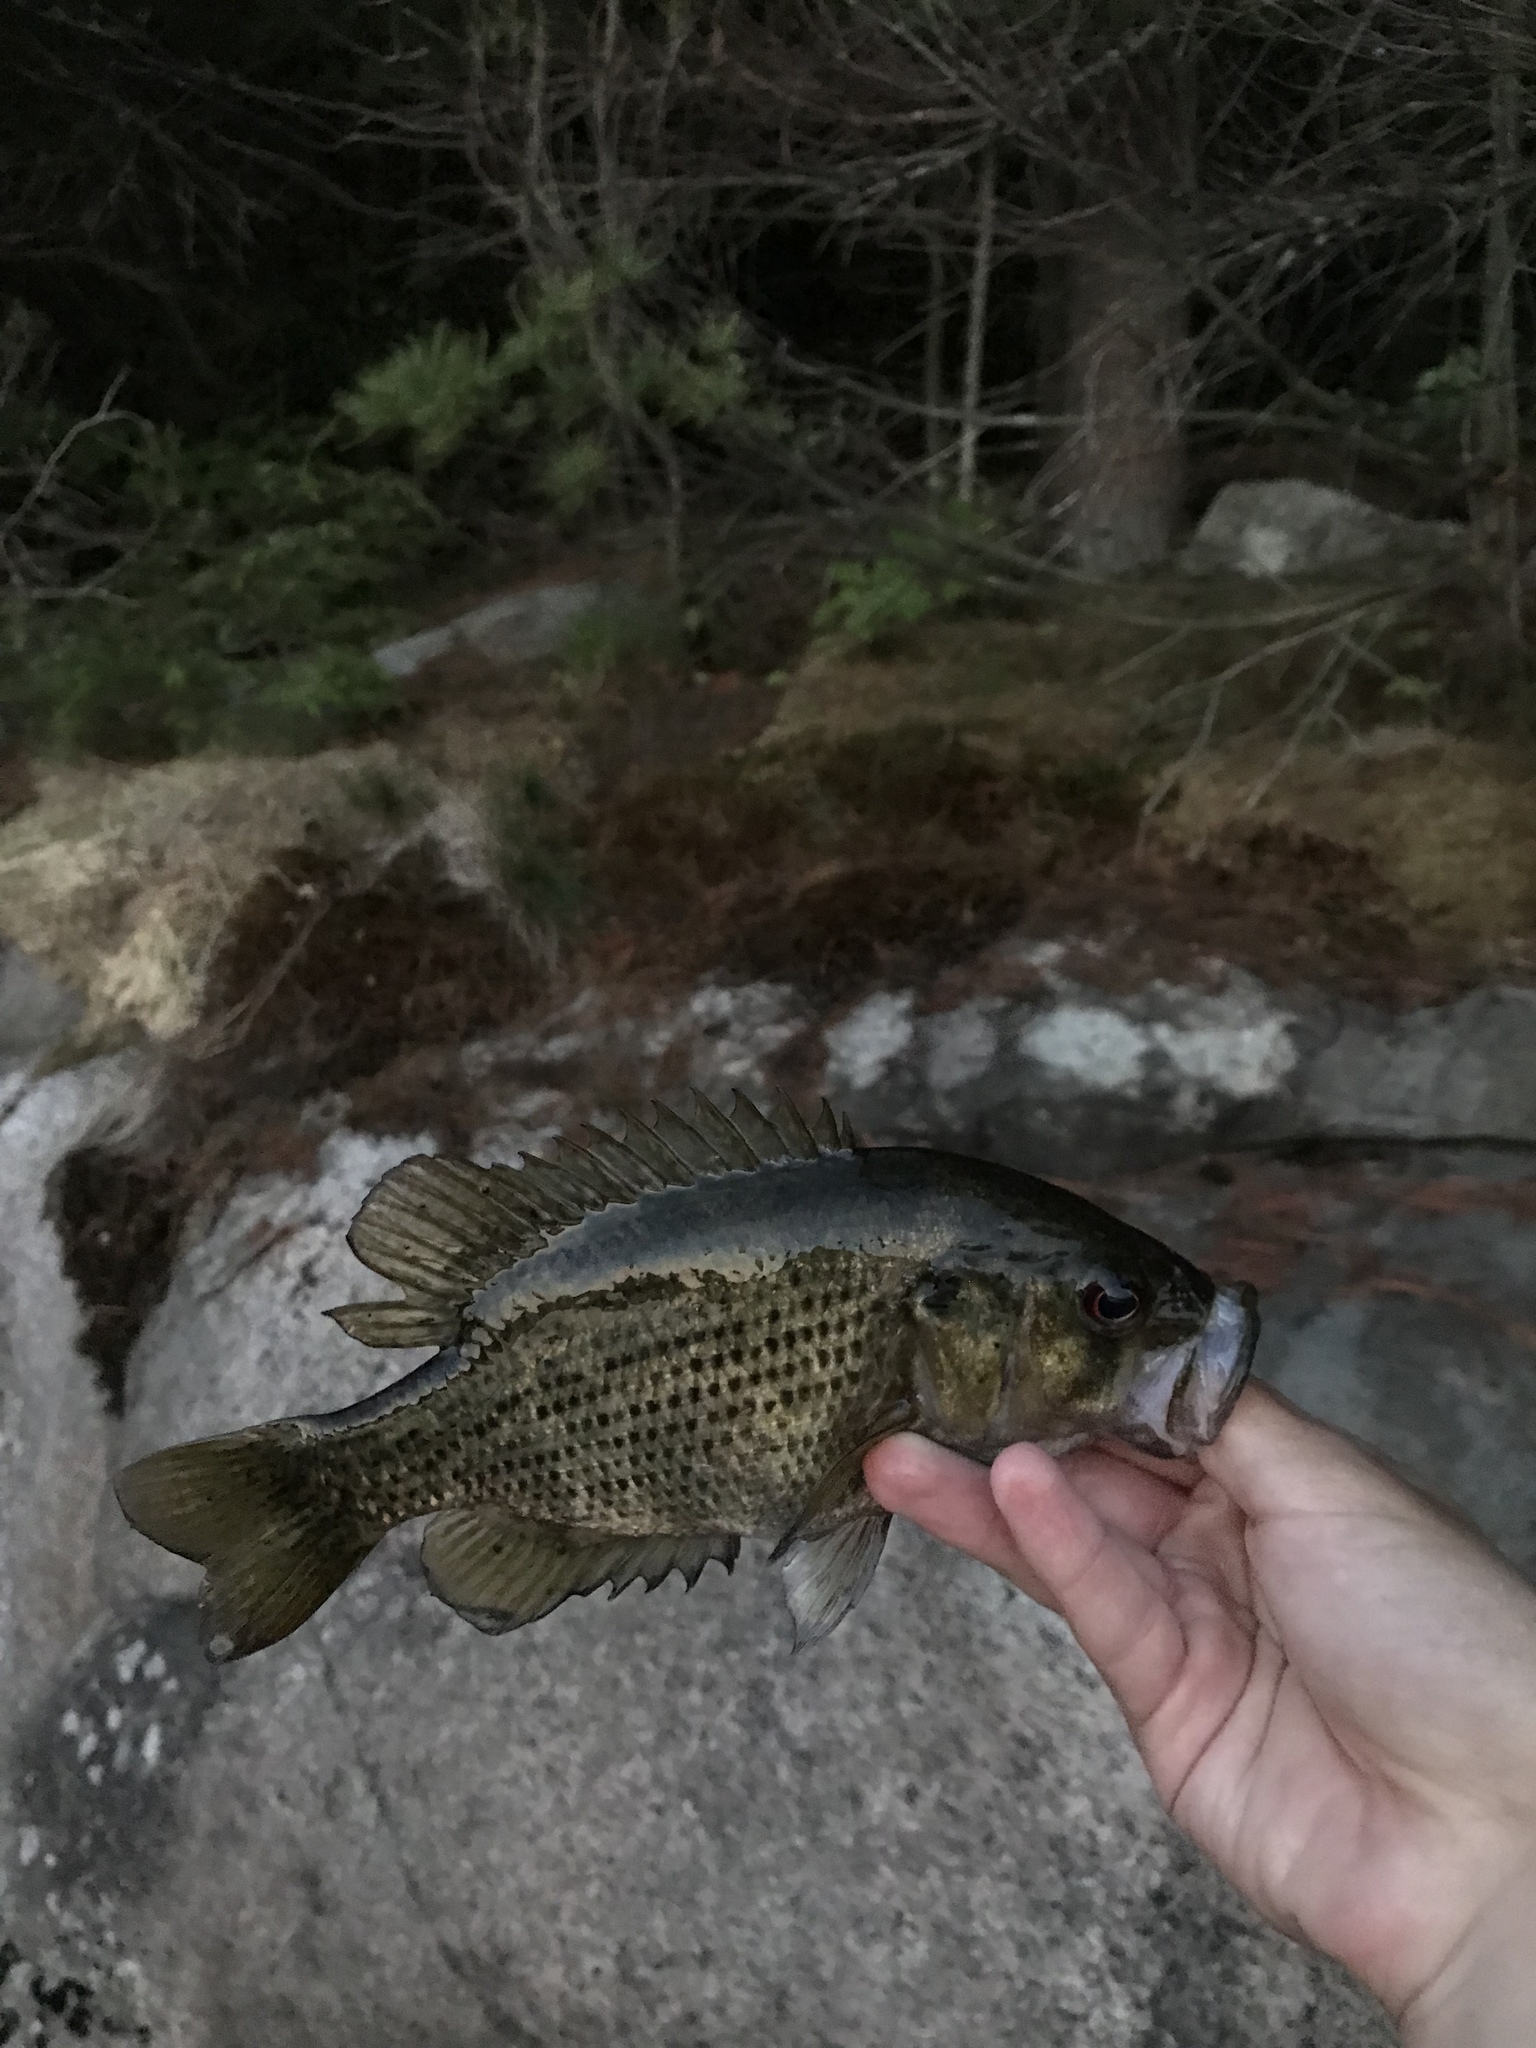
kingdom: Animalia
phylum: Chordata
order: Perciformes
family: Centrarchidae
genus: Ambloplites
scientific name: Ambloplites rupestris
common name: Rock bass
